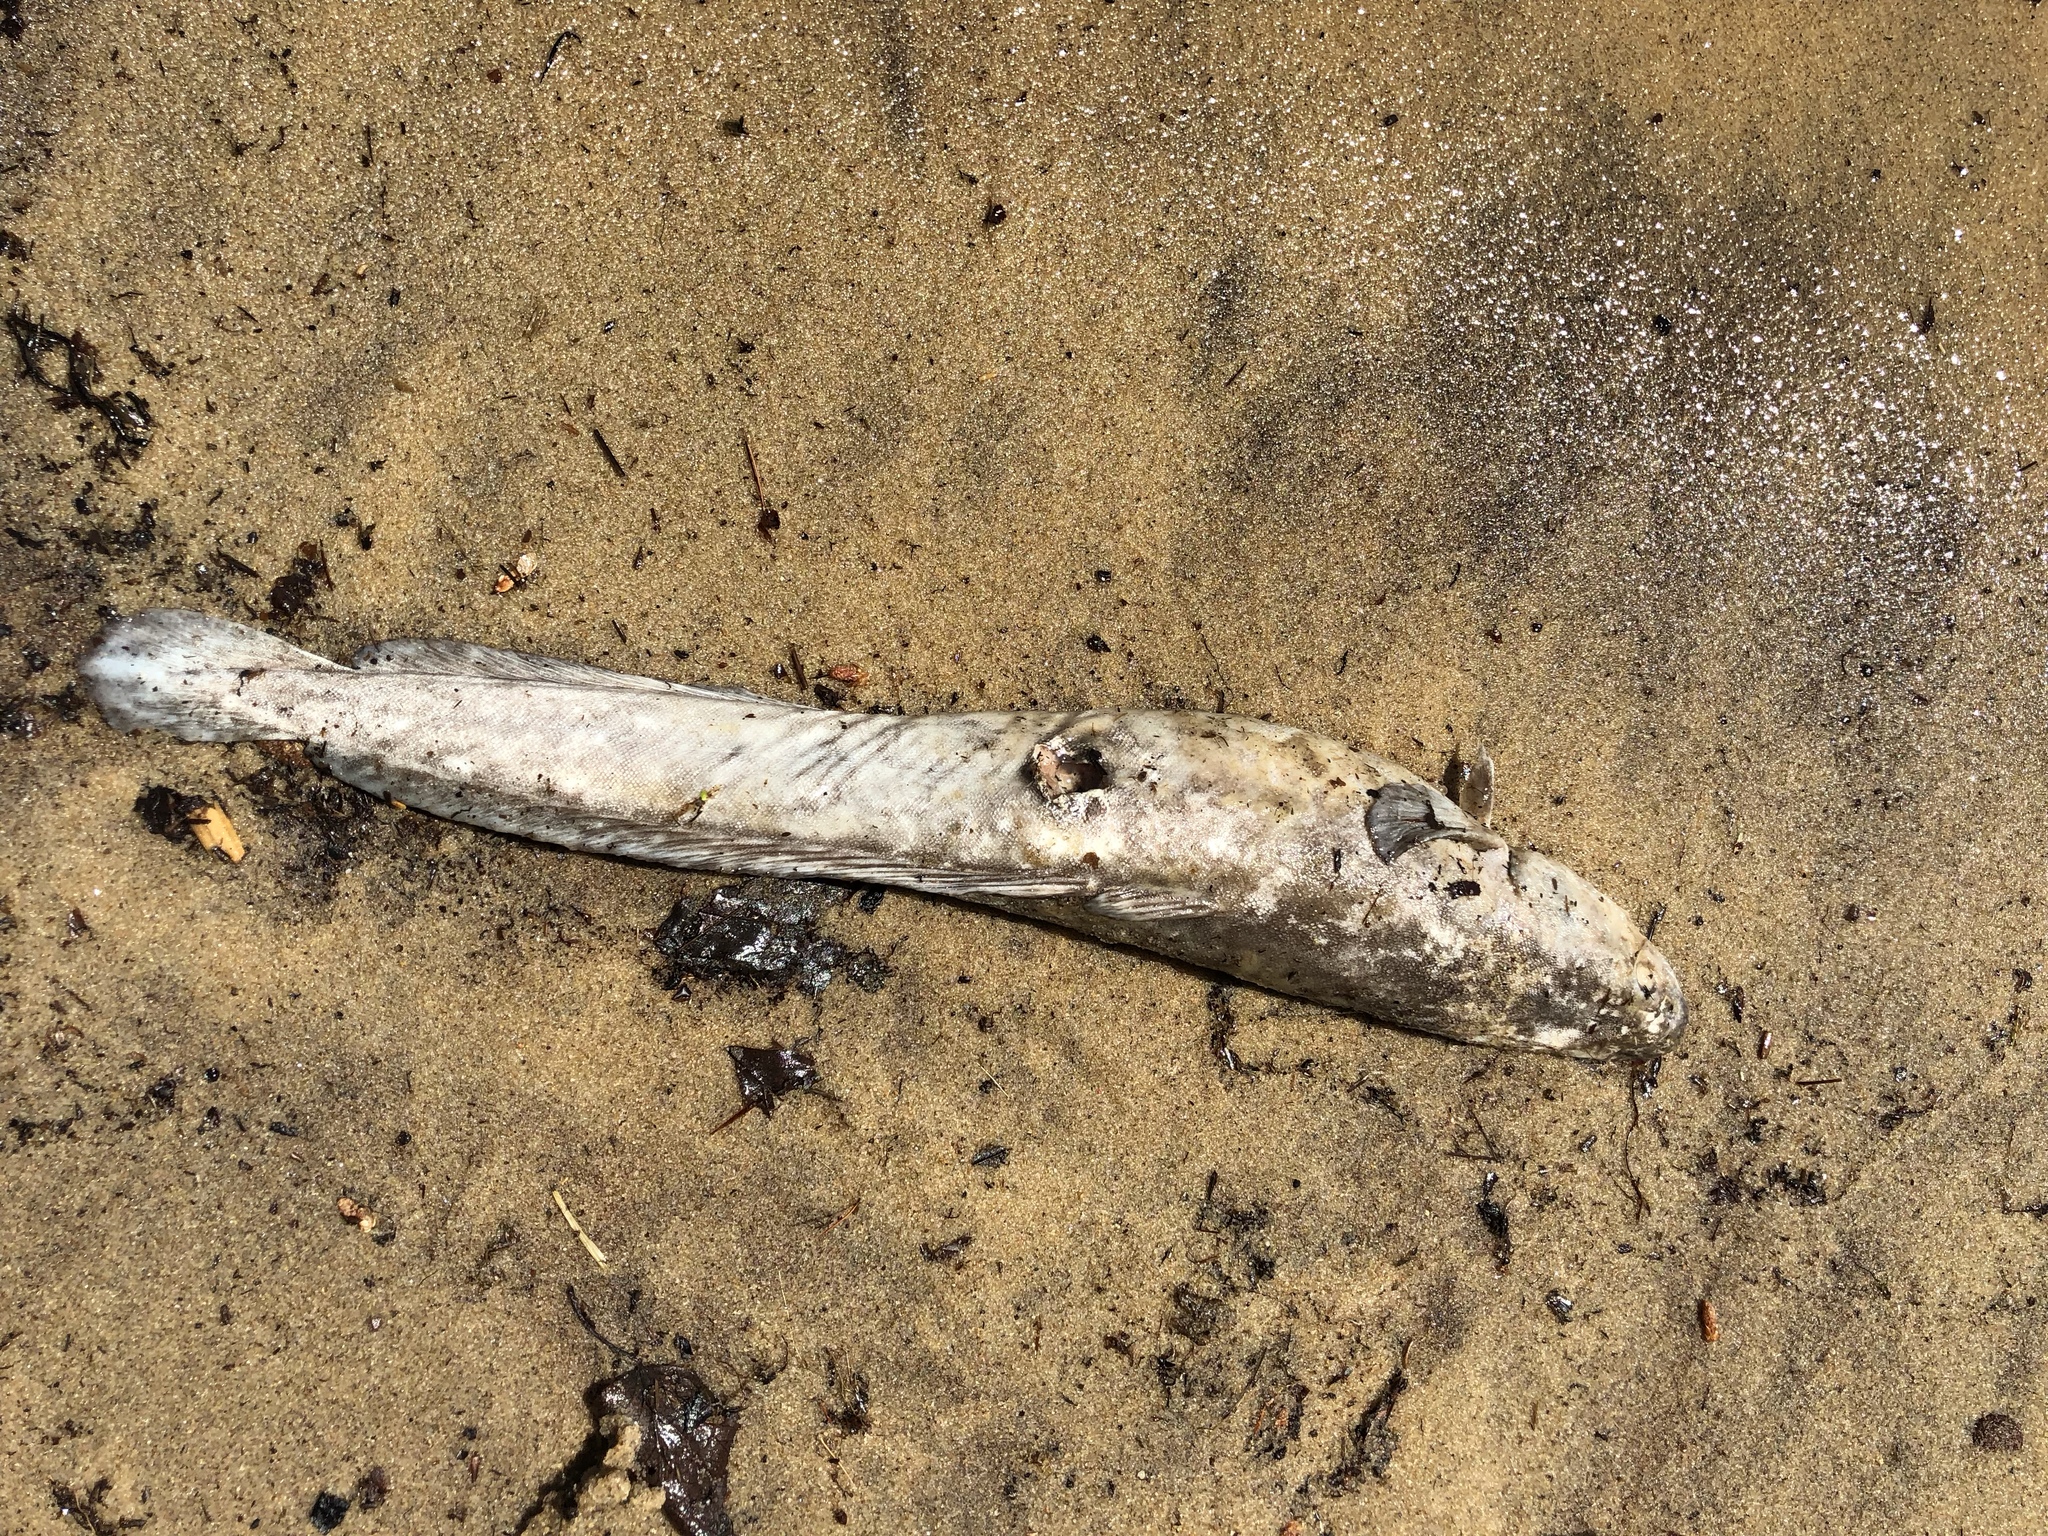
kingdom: Animalia
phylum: Chordata
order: Gadiformes
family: Lotidae
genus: Lota
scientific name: Lota lota
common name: Burbot
